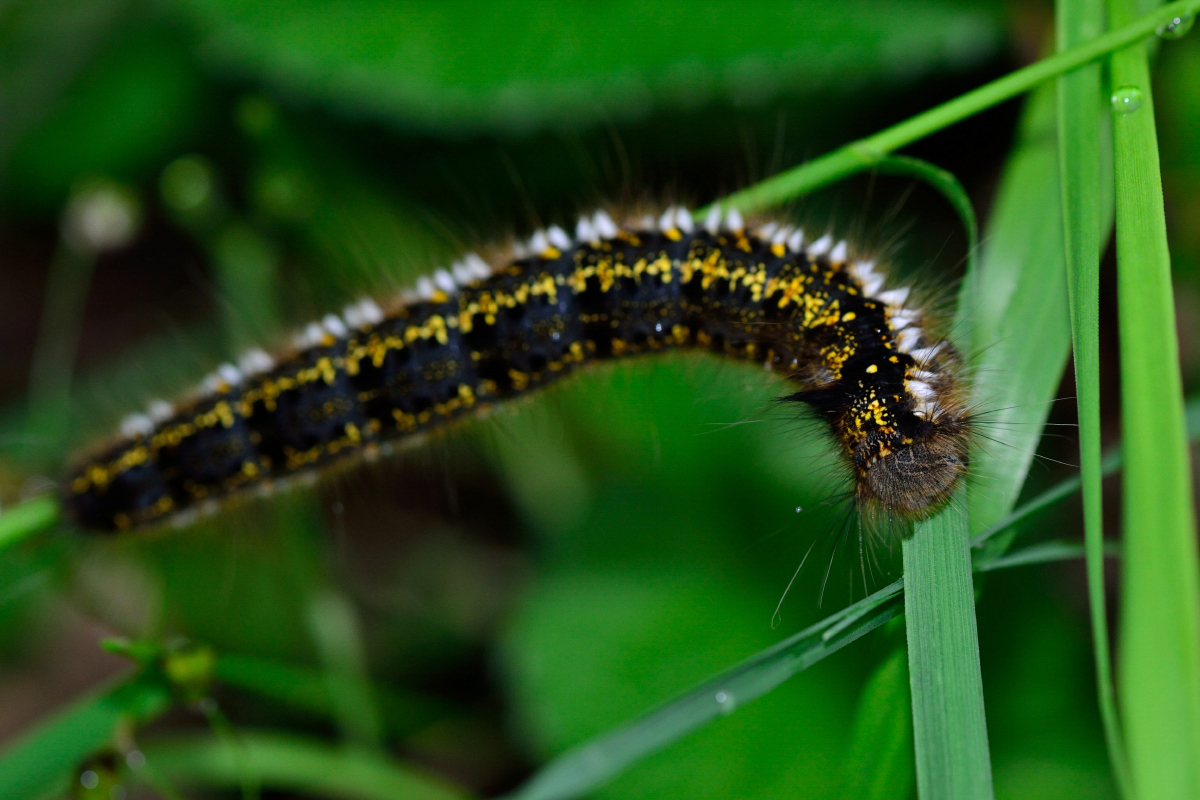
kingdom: Animalia
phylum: Arthropoda
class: Insecta
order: Lepidoptera
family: Lasiocampidae
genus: Euthrix
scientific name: Euthrix potatoria
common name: Drinker
